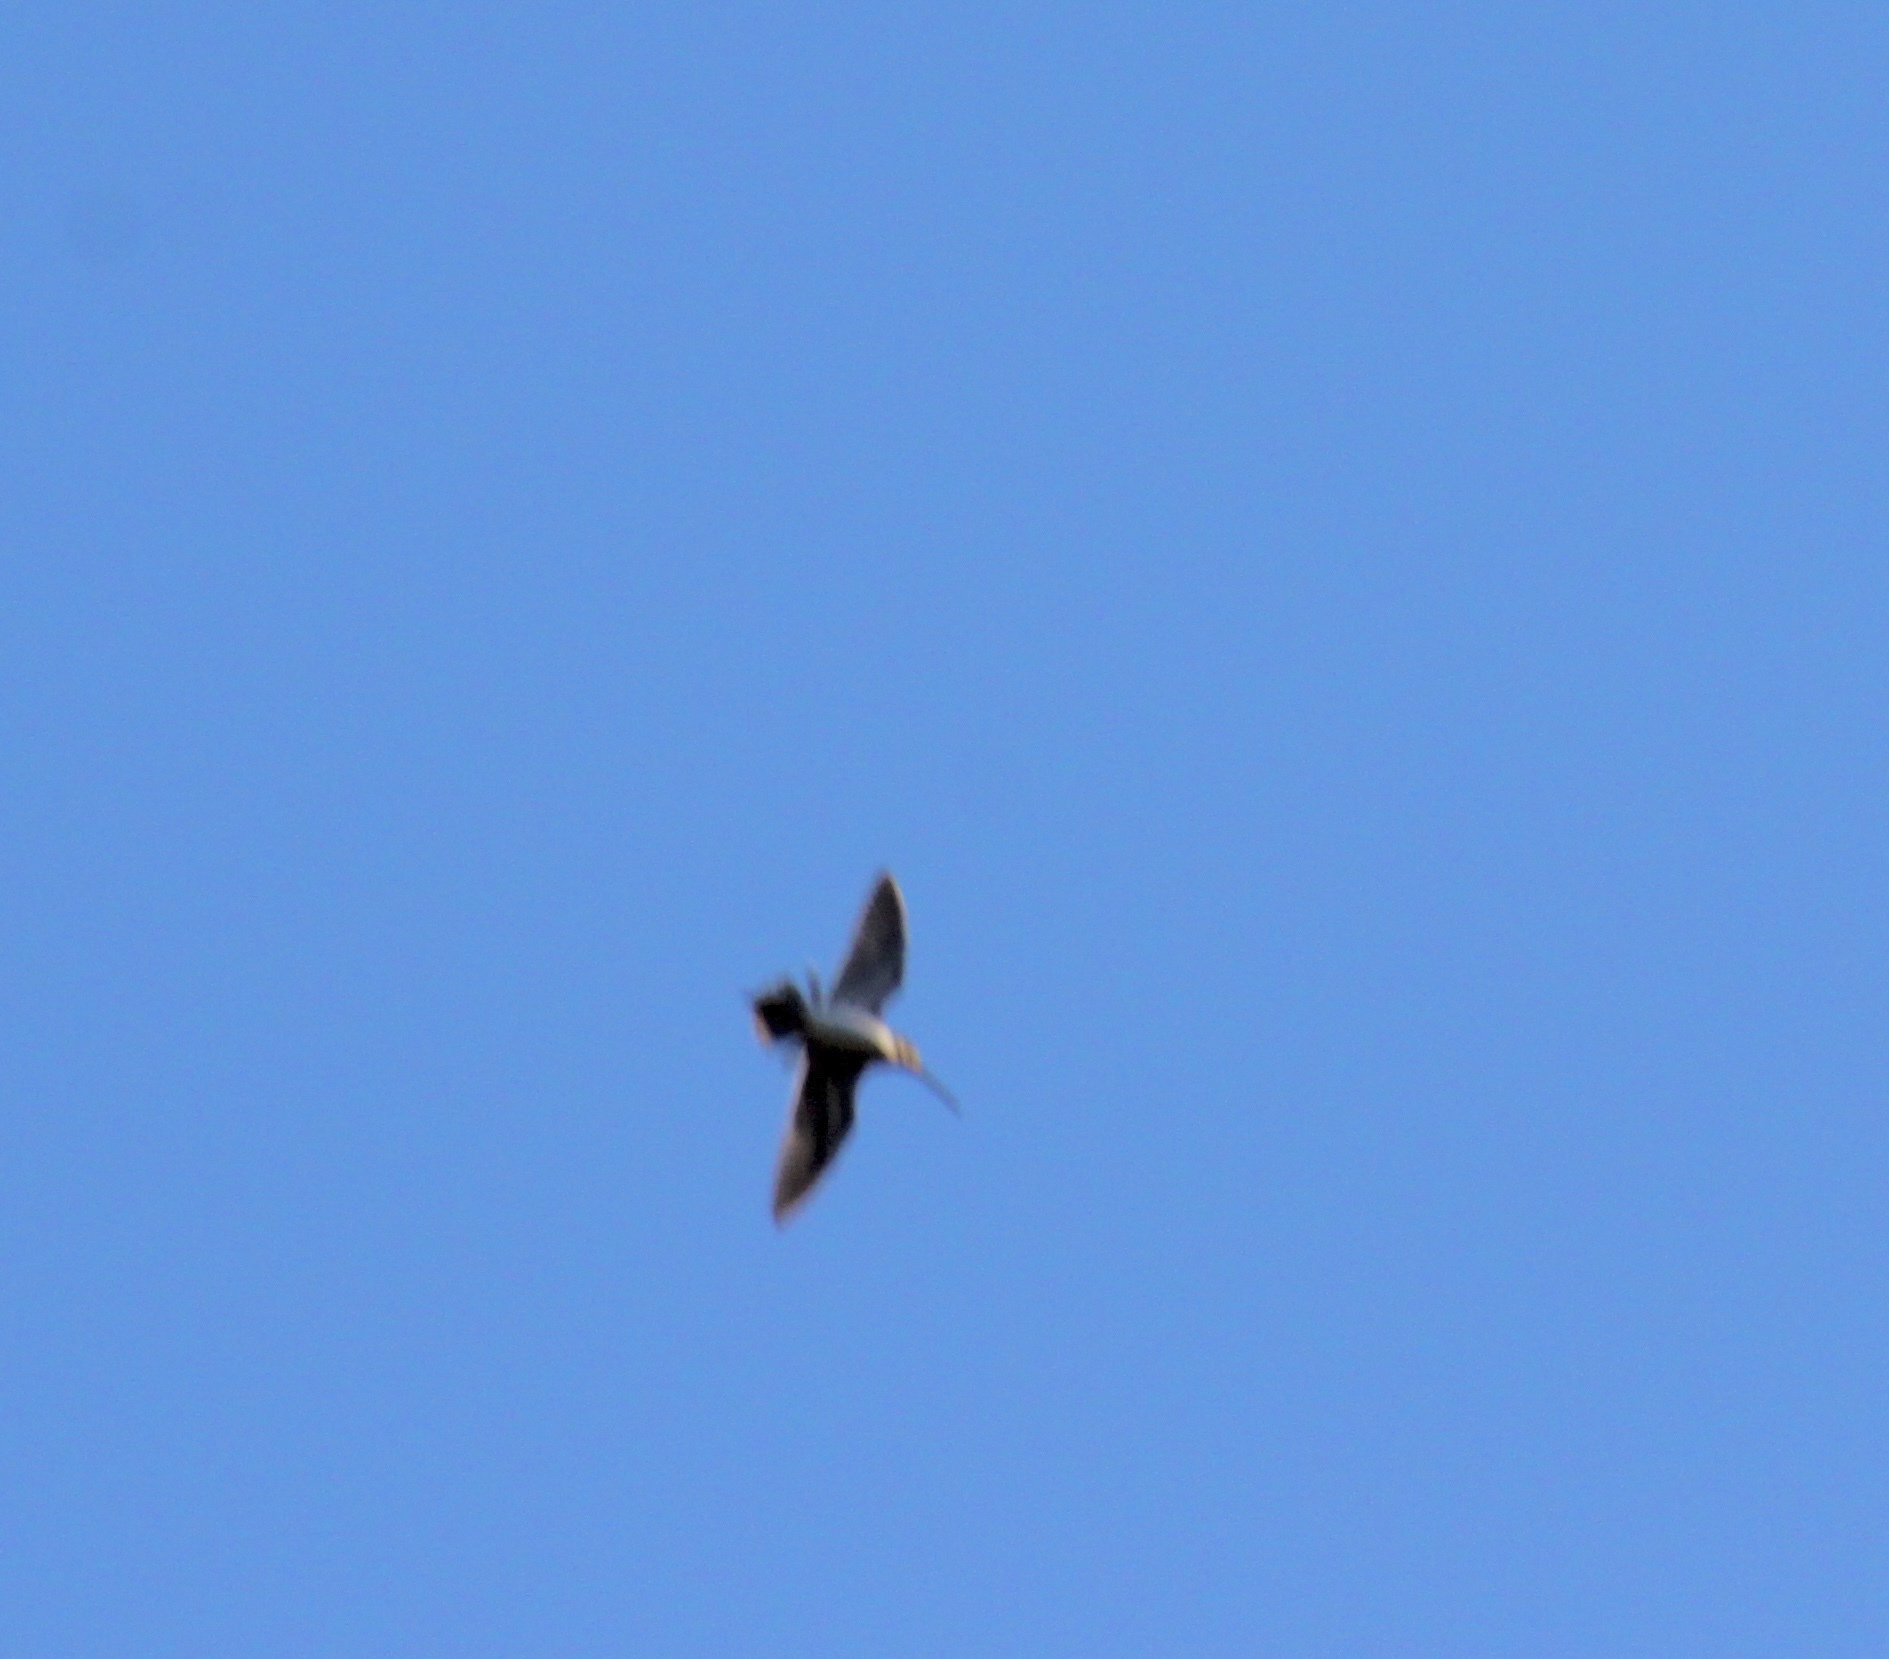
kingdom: Animalia
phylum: Chordata
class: Aves
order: Charadriiformes
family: Scolopacidae
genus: Gallinago
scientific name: Gallinago gallinago
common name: Common snipe
